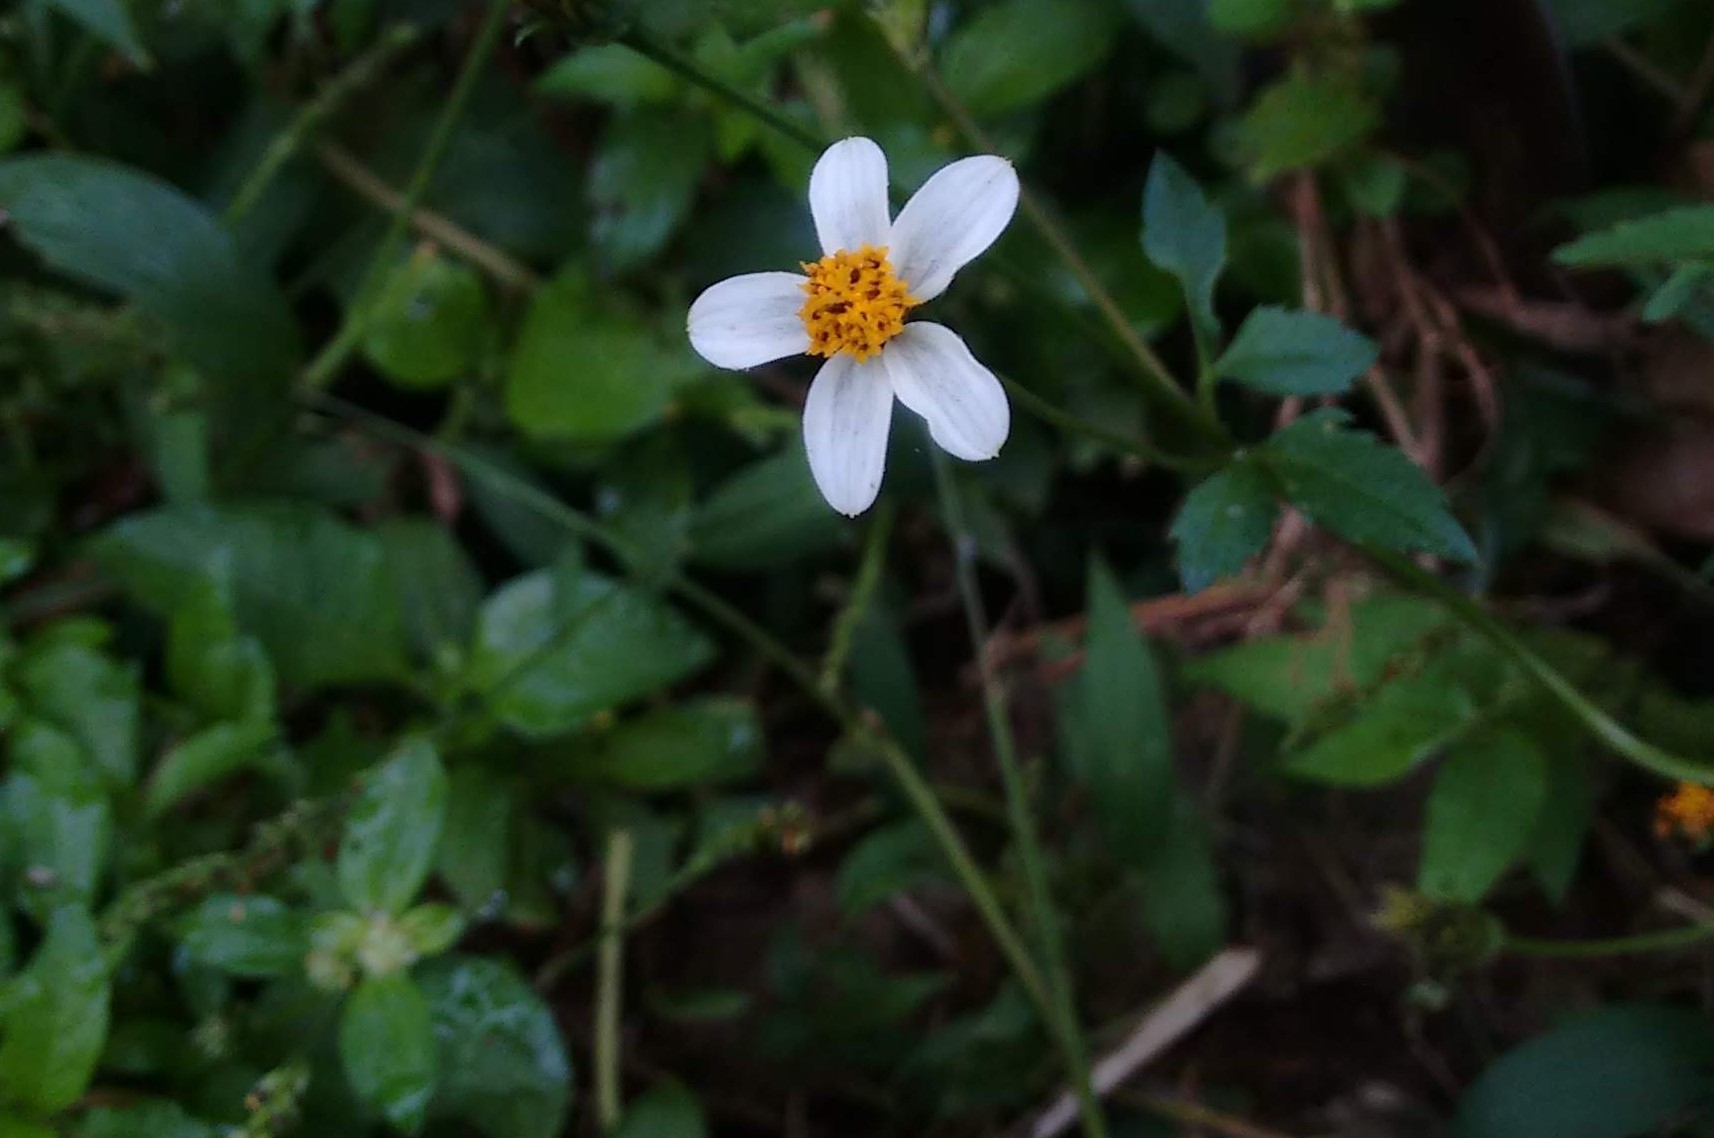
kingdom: Plantae
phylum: Tracheophyta
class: Magnoliopsida
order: Asterales
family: Asteraceae
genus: Bidens
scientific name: Bidens alba
